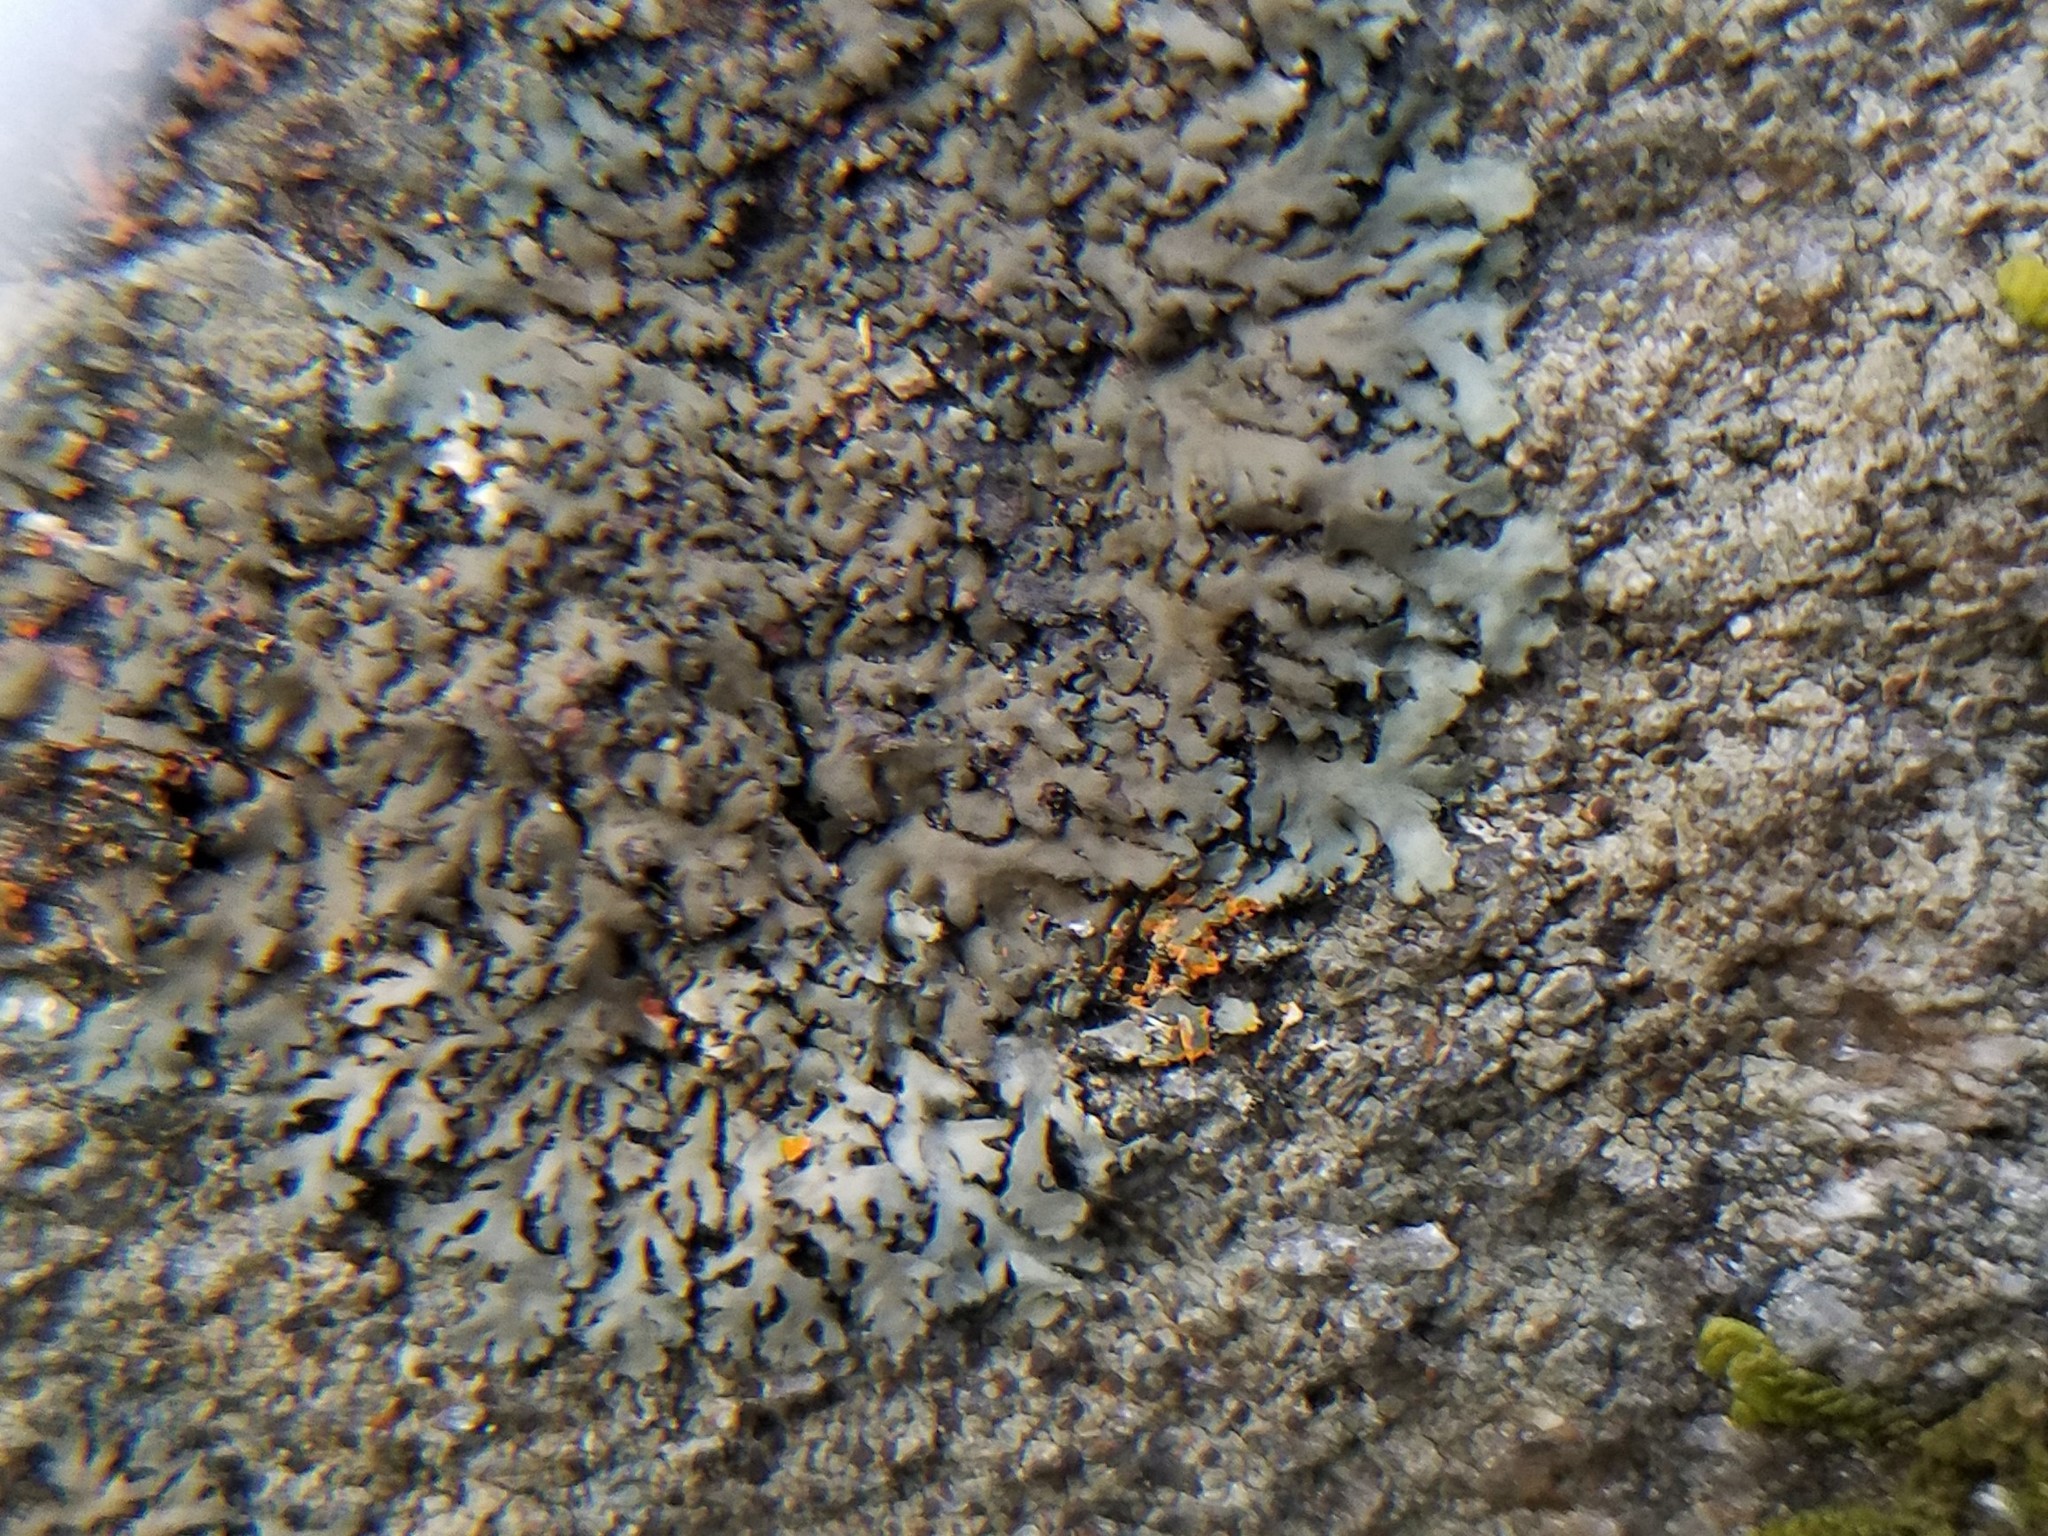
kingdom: Fungi
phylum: Ascomycota
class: Lecanoromycetes
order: Caliciales
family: Physciaceae
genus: Phaeophyscia
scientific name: Phaeophyscia rubropulchra
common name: Orange-cored shadow lichen
